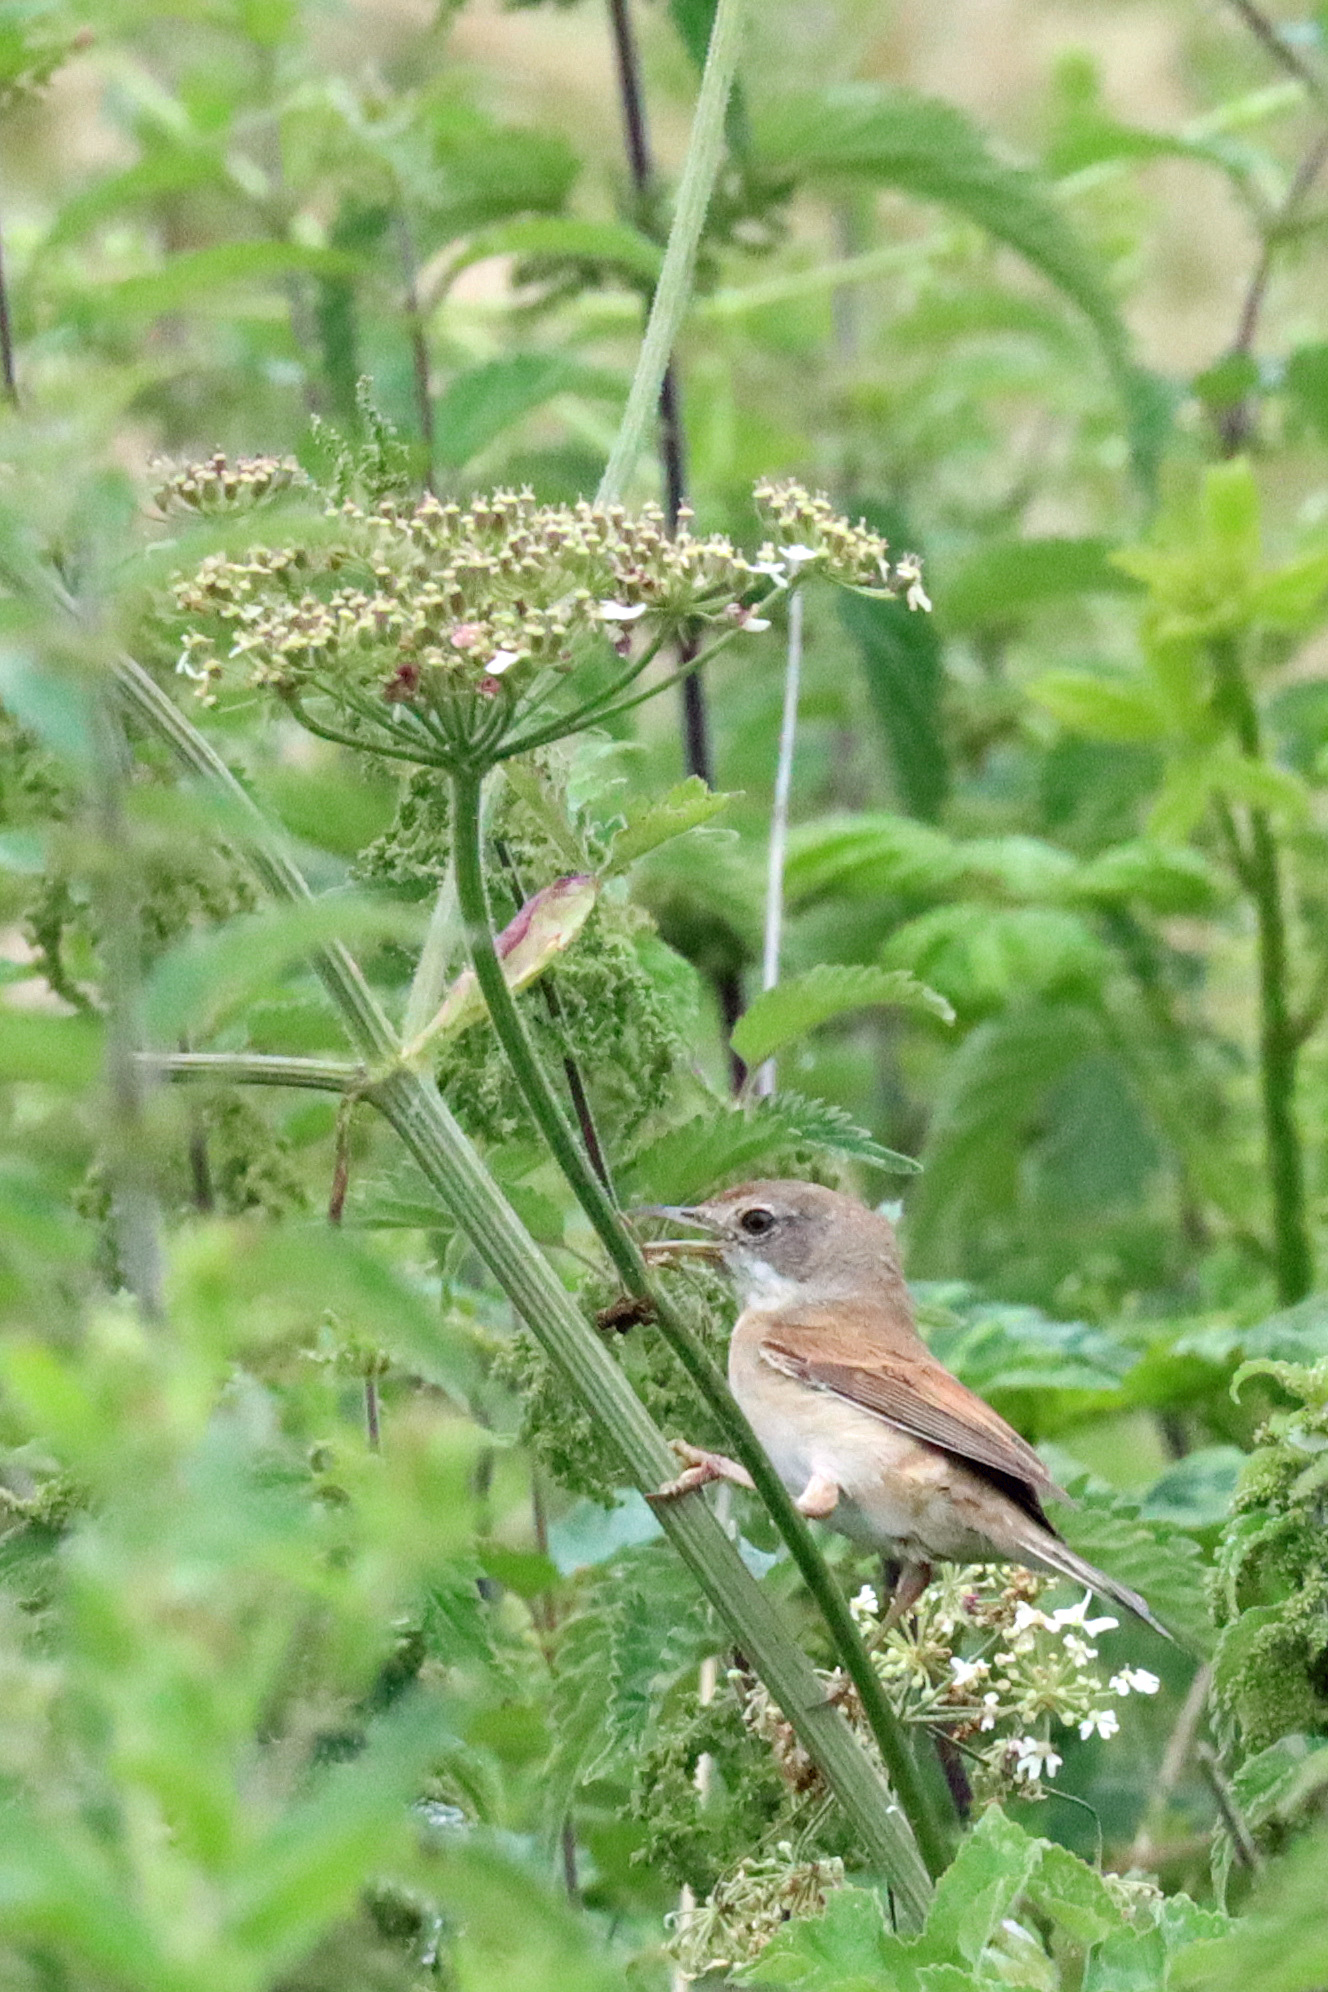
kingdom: Animalia
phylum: Chordata
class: Aves
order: Passeriformes
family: Sylviidae
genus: Sylvia
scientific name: Sylvia communis
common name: Common whitethroat
